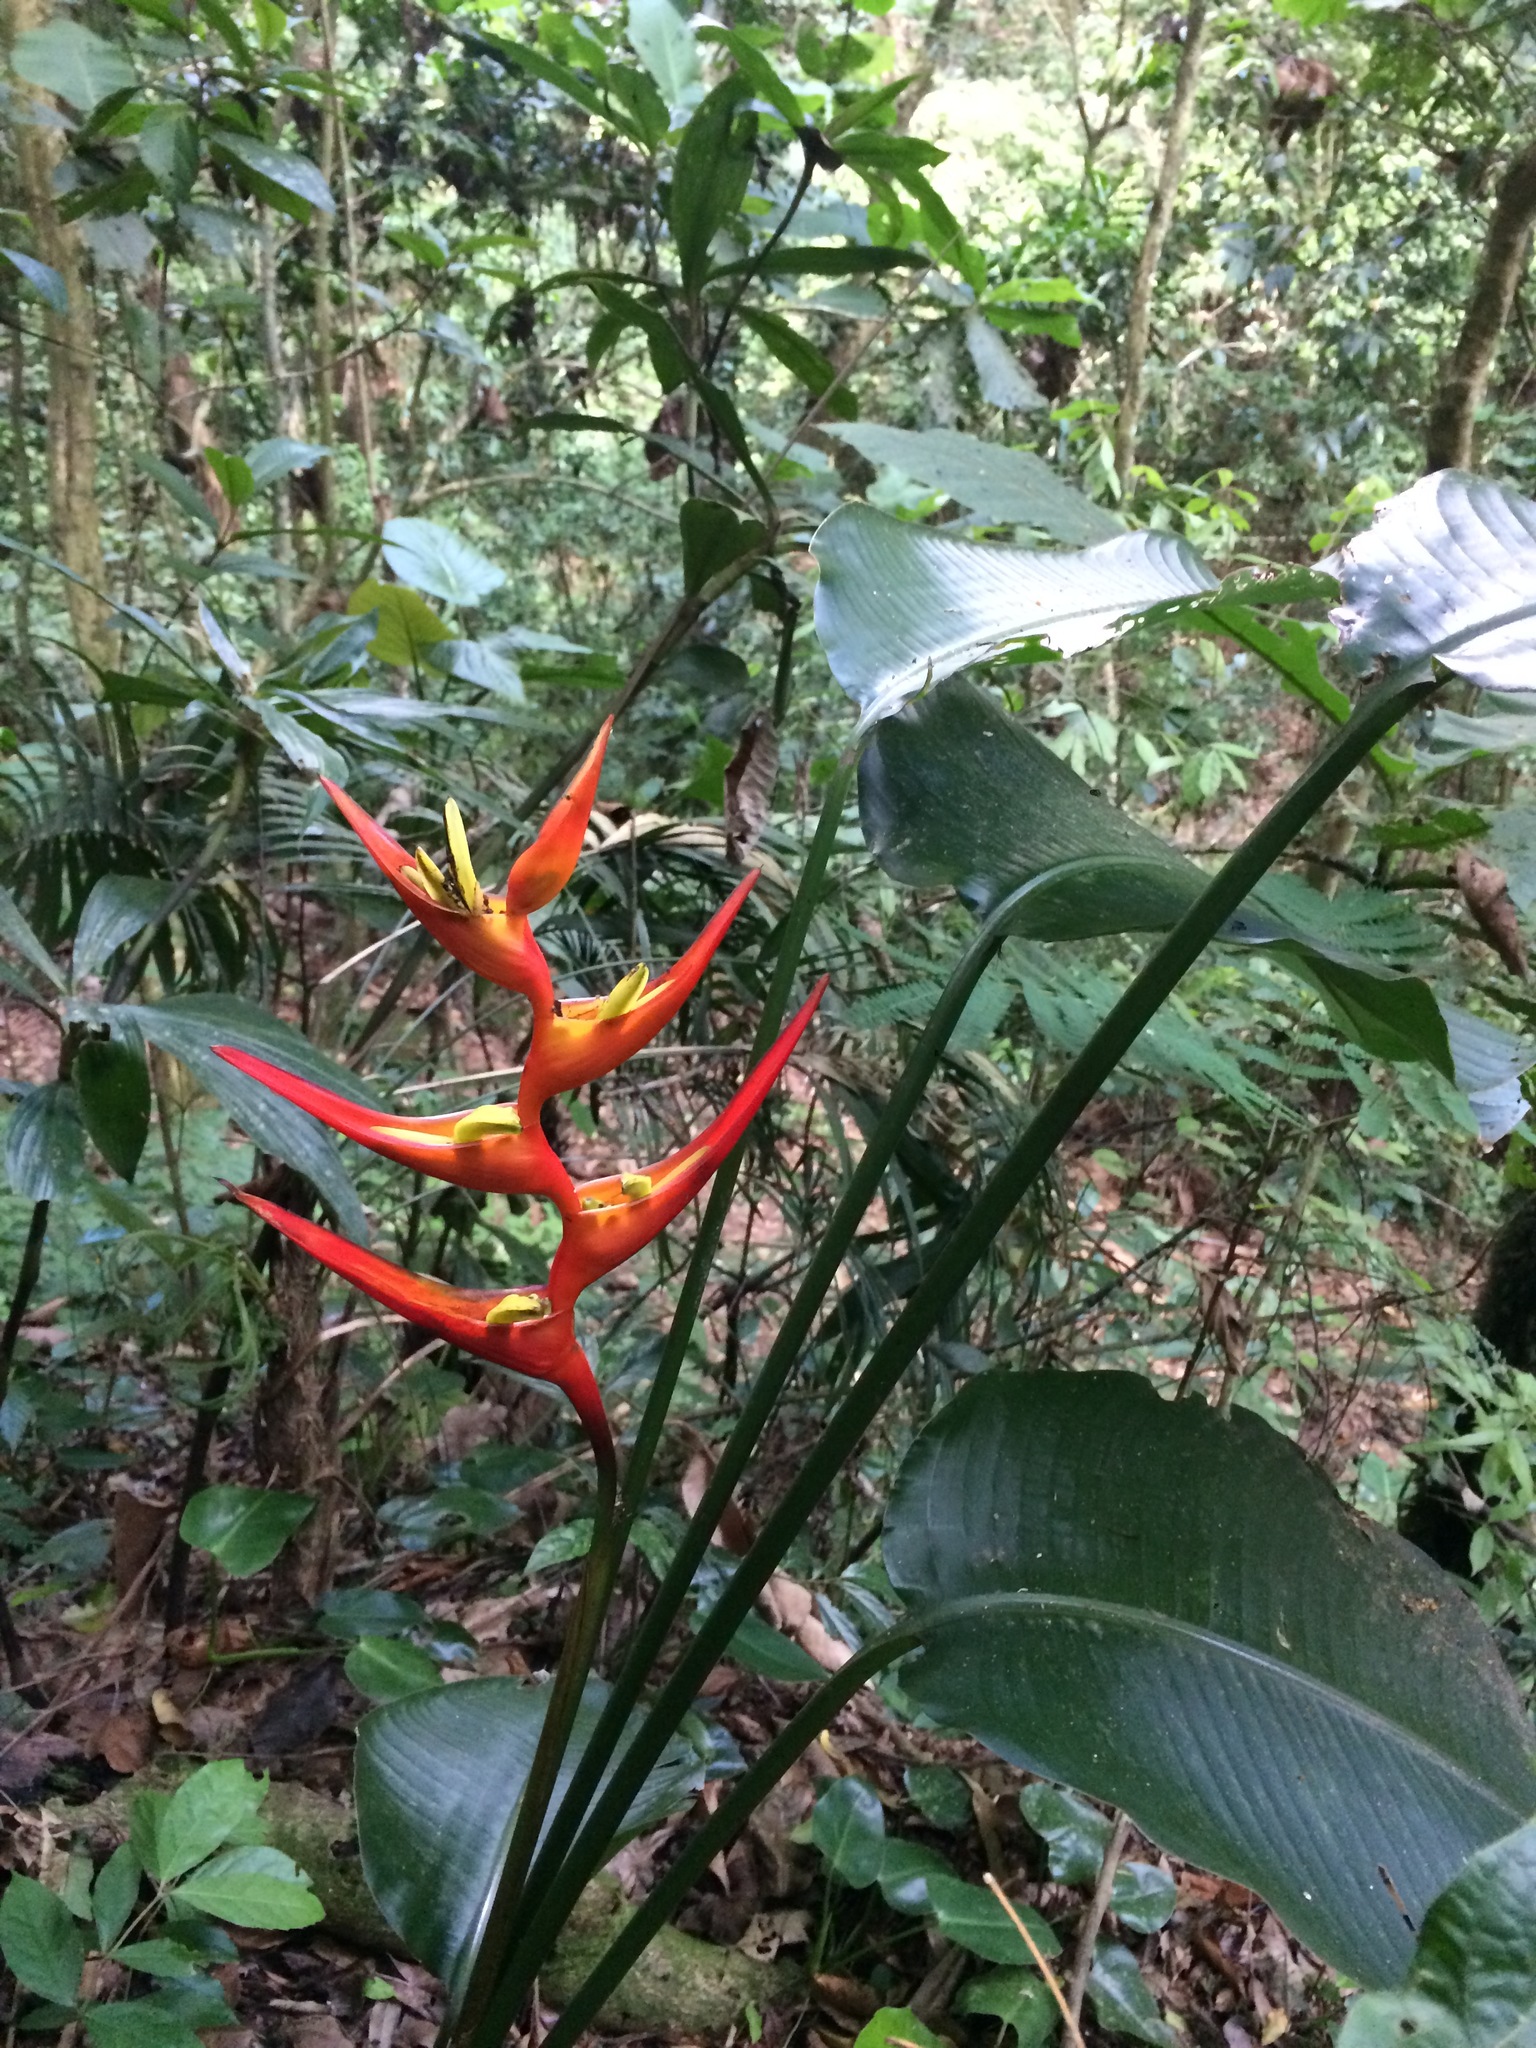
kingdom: Plantae
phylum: Tracheophyta
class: Liliopsida
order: Zingiberales
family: Heliconiaceae
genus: Heliconia
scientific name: Heliconia farinosa
